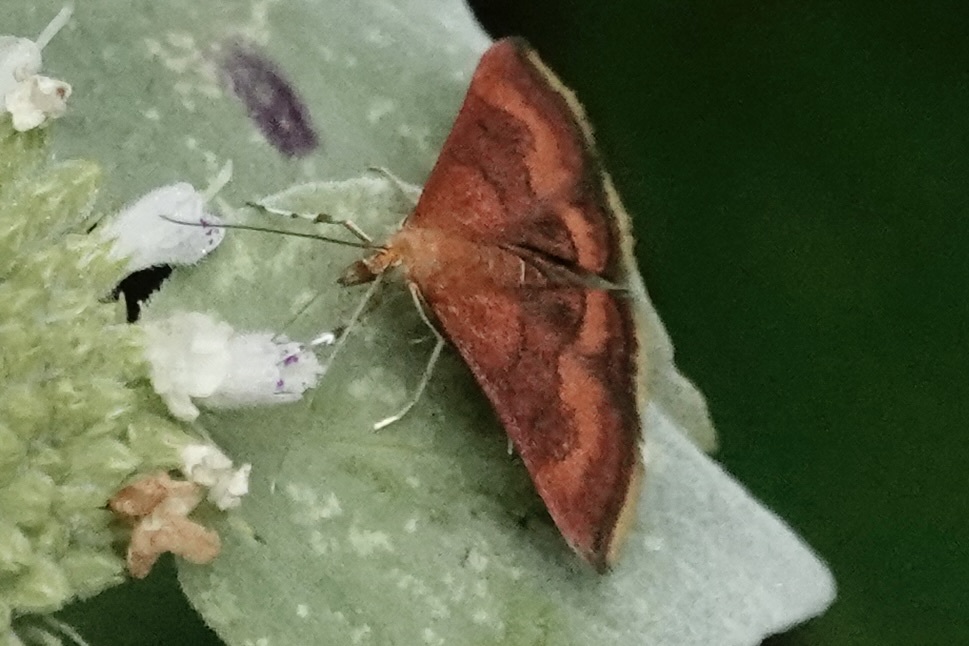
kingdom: Animalia
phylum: Arthropoda
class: Insecta
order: Lepidoptera
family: Crambidae
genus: Pyrausta
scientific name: Pyrausta rubricalis
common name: Variable reddish pyrausta
